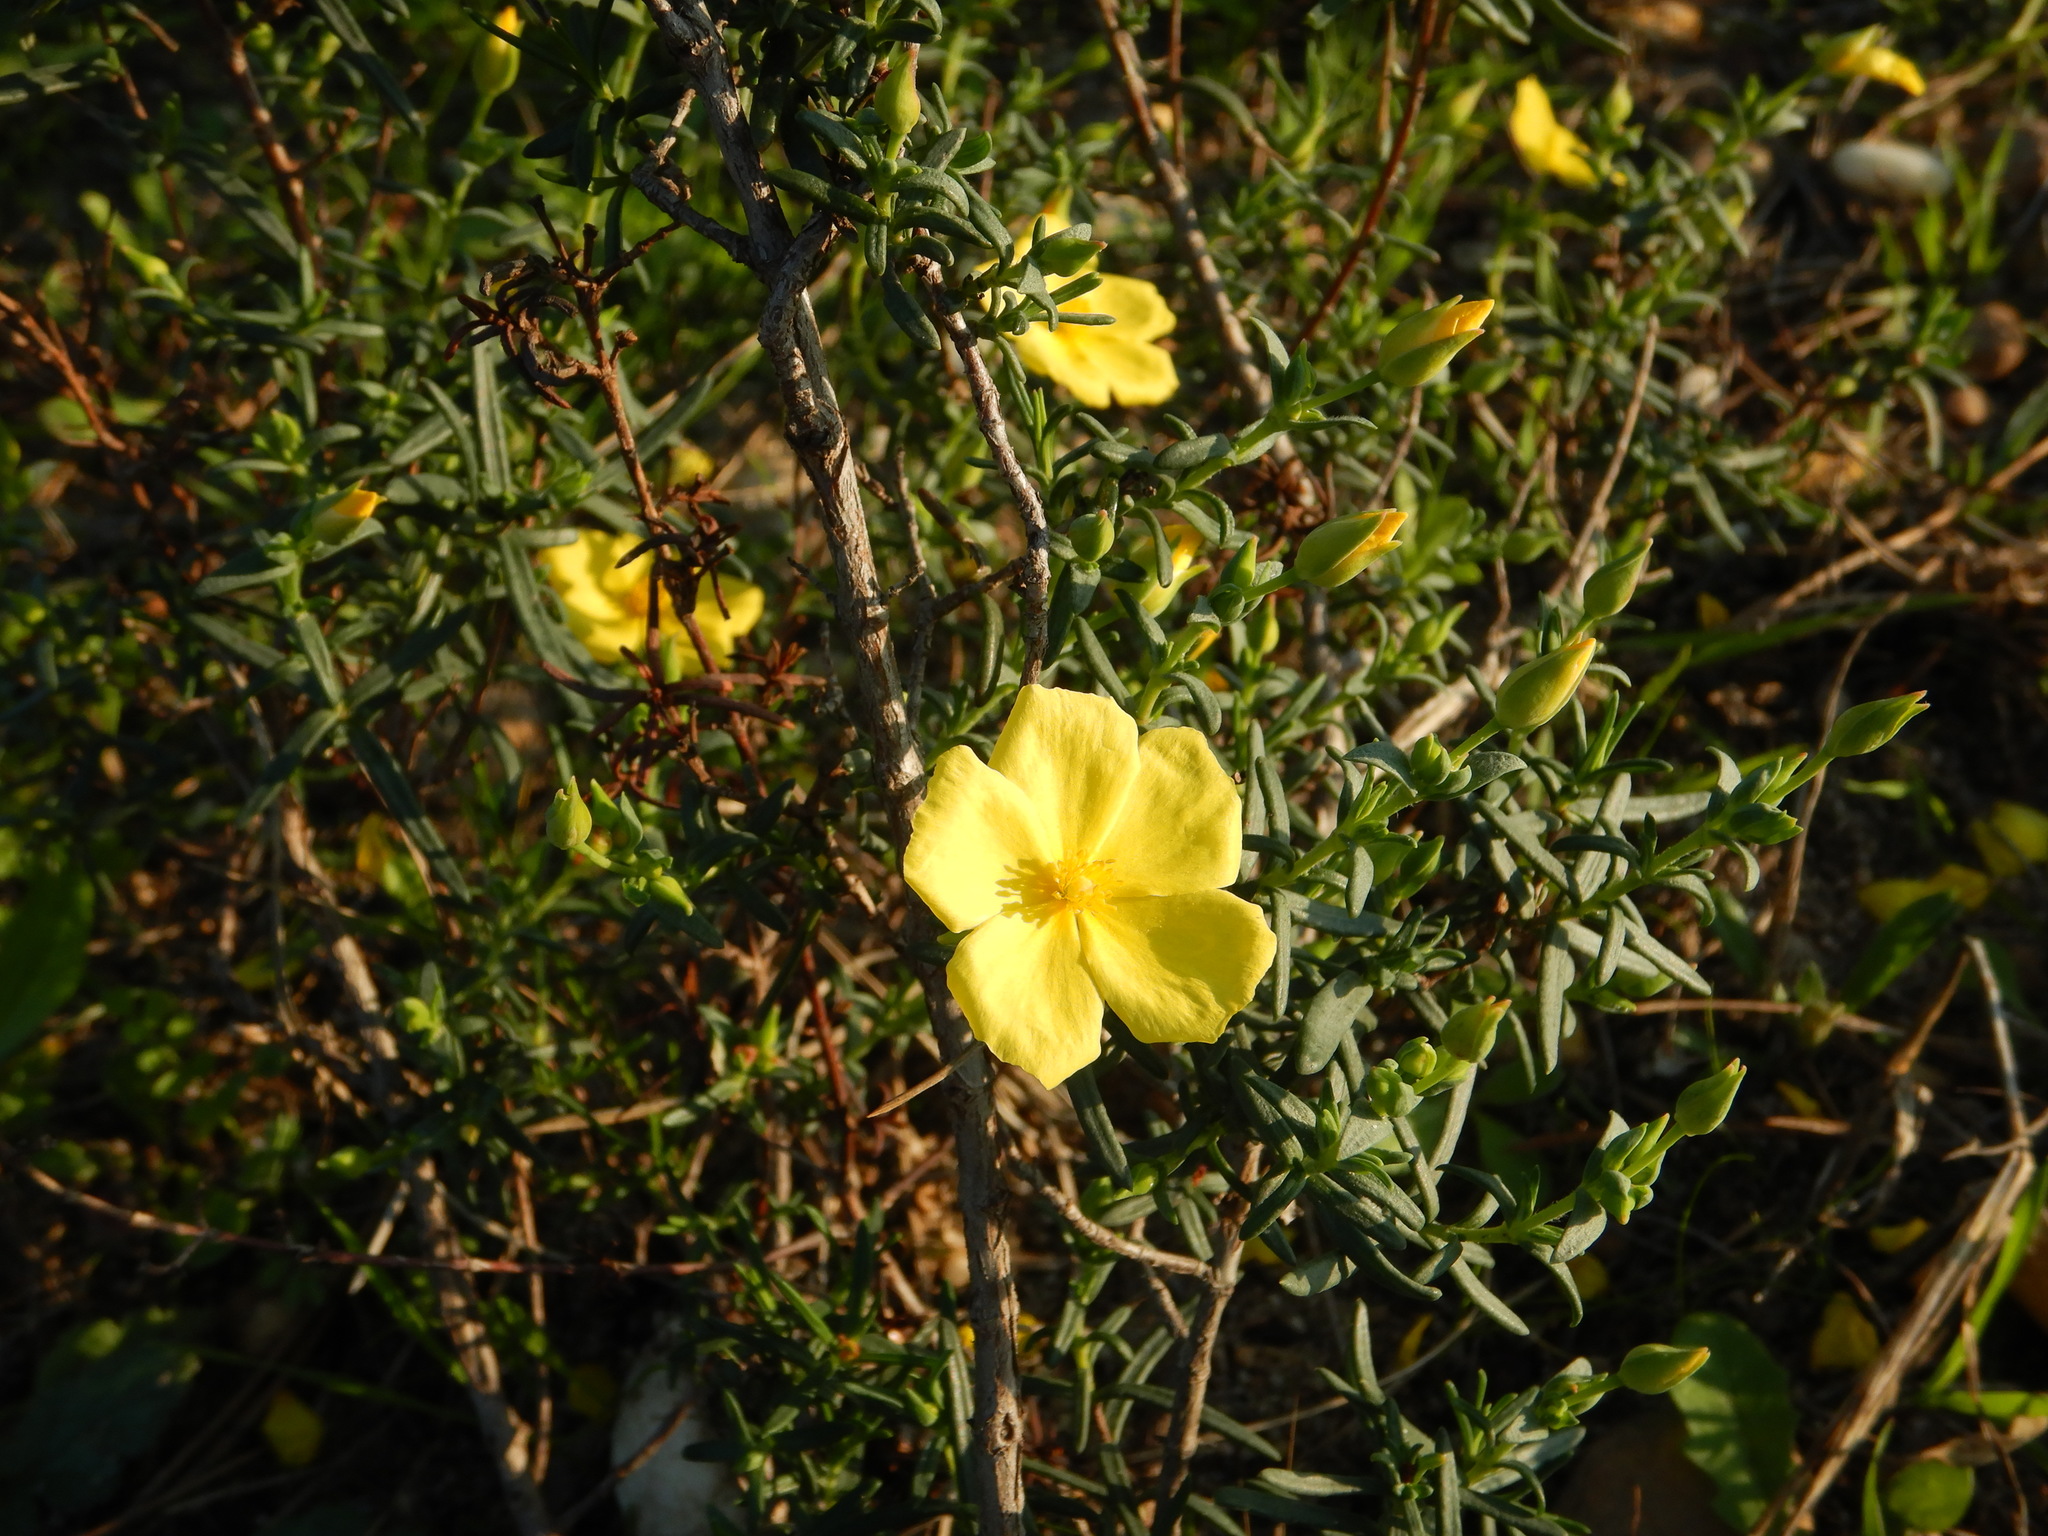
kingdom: Plantae
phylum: Tracheophyta
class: Magnoliopsida
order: Malvales
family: Cistaceae
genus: Halimium
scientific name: Halimium calycinum
